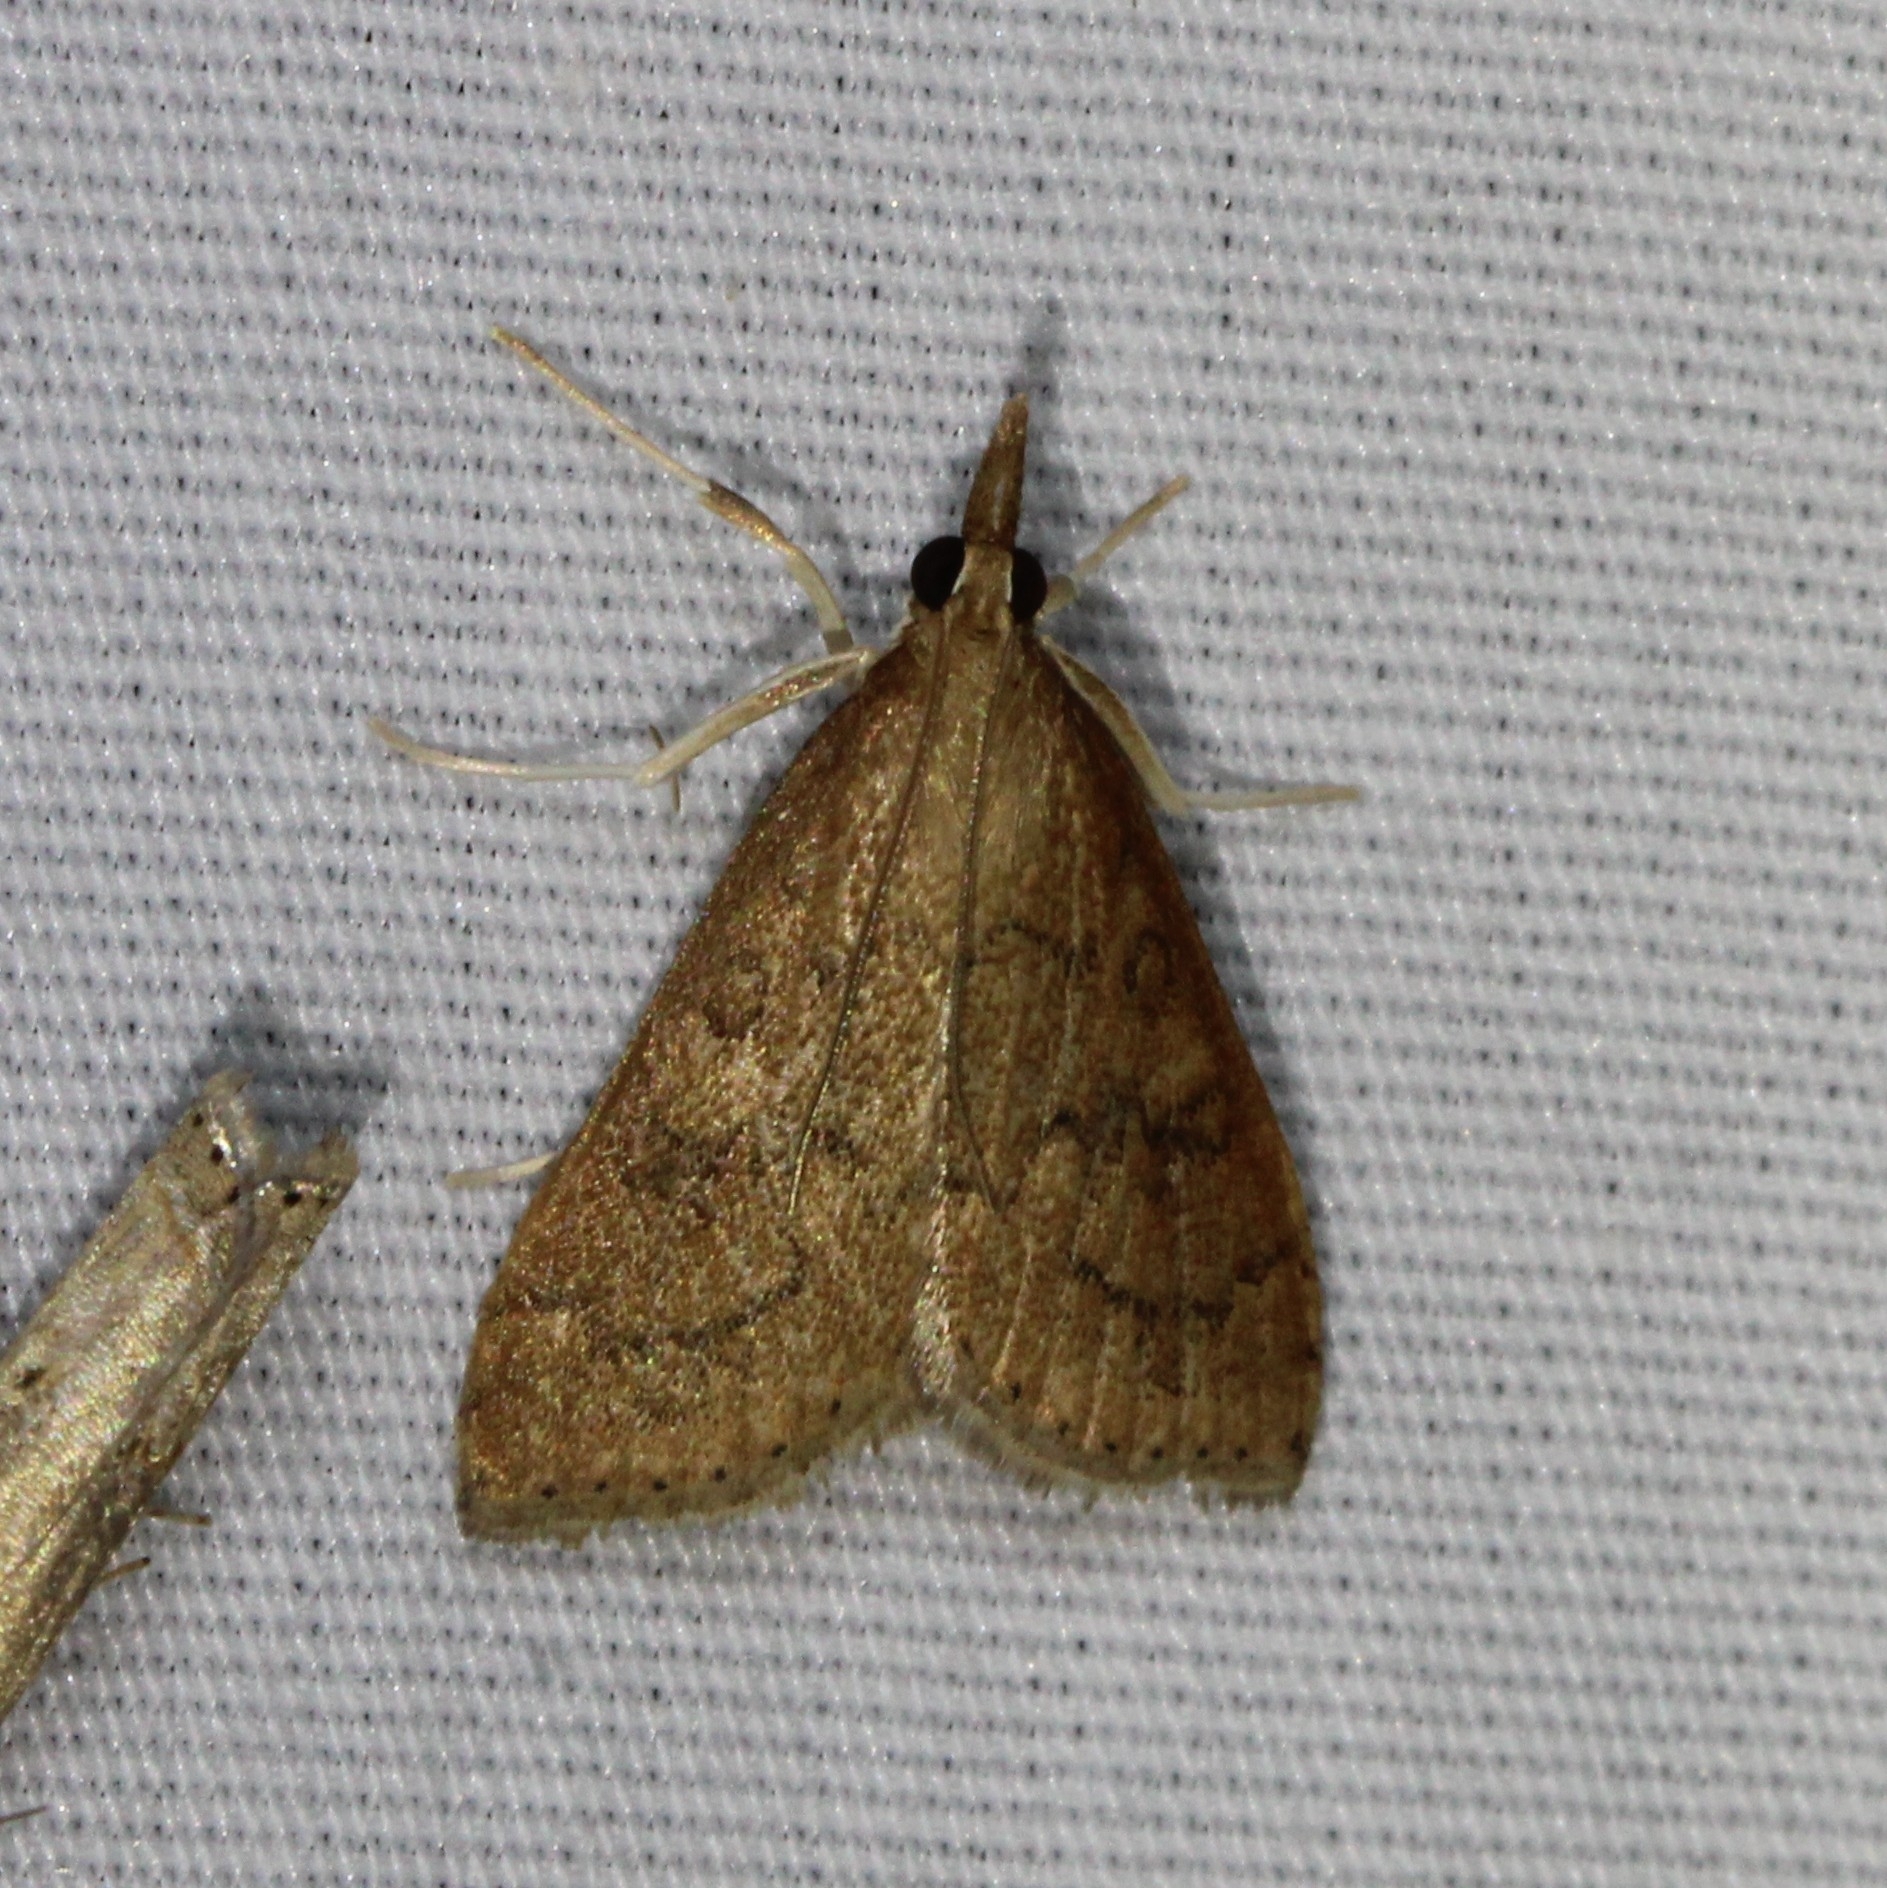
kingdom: Animalia
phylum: Arthropoda
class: Insecta
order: Lepidoptera
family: Crambidae
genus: Udea
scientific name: Udea rubigalis
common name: Celery leaftier moth
